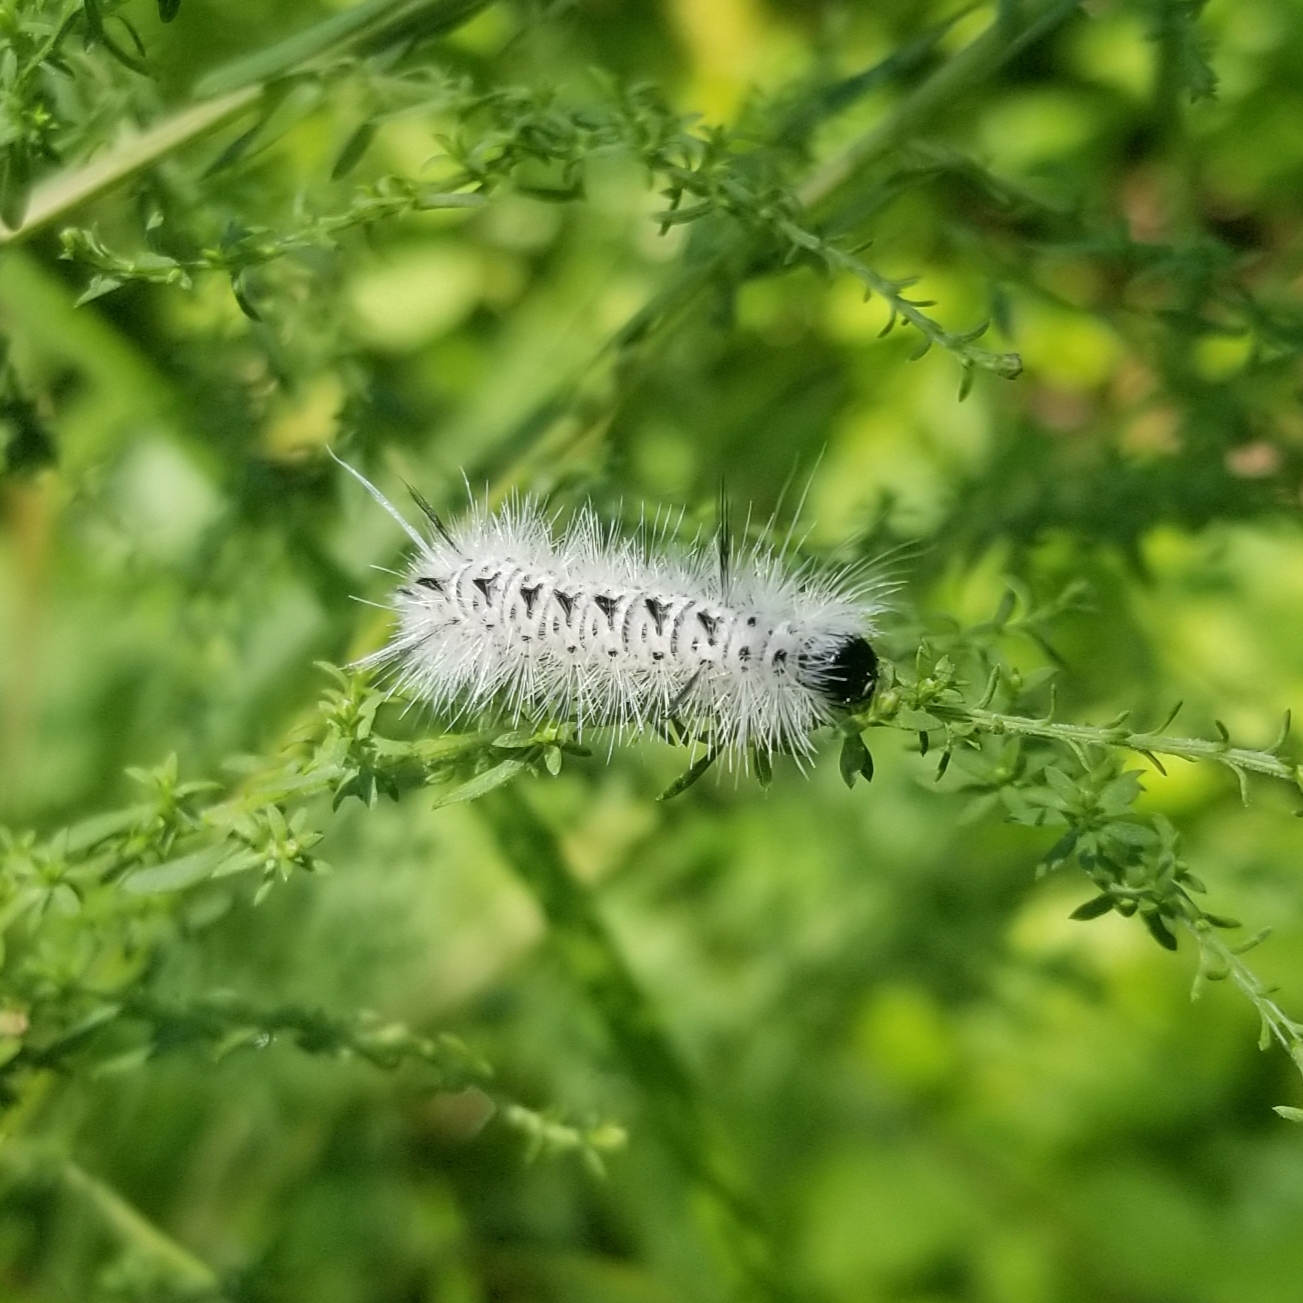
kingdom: Animalia
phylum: Arthropoda
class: Insecta
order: Lepidoptera
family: Erebidae
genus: Lophocampa
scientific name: Lophocampa caryae
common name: Hickory tussock moth
